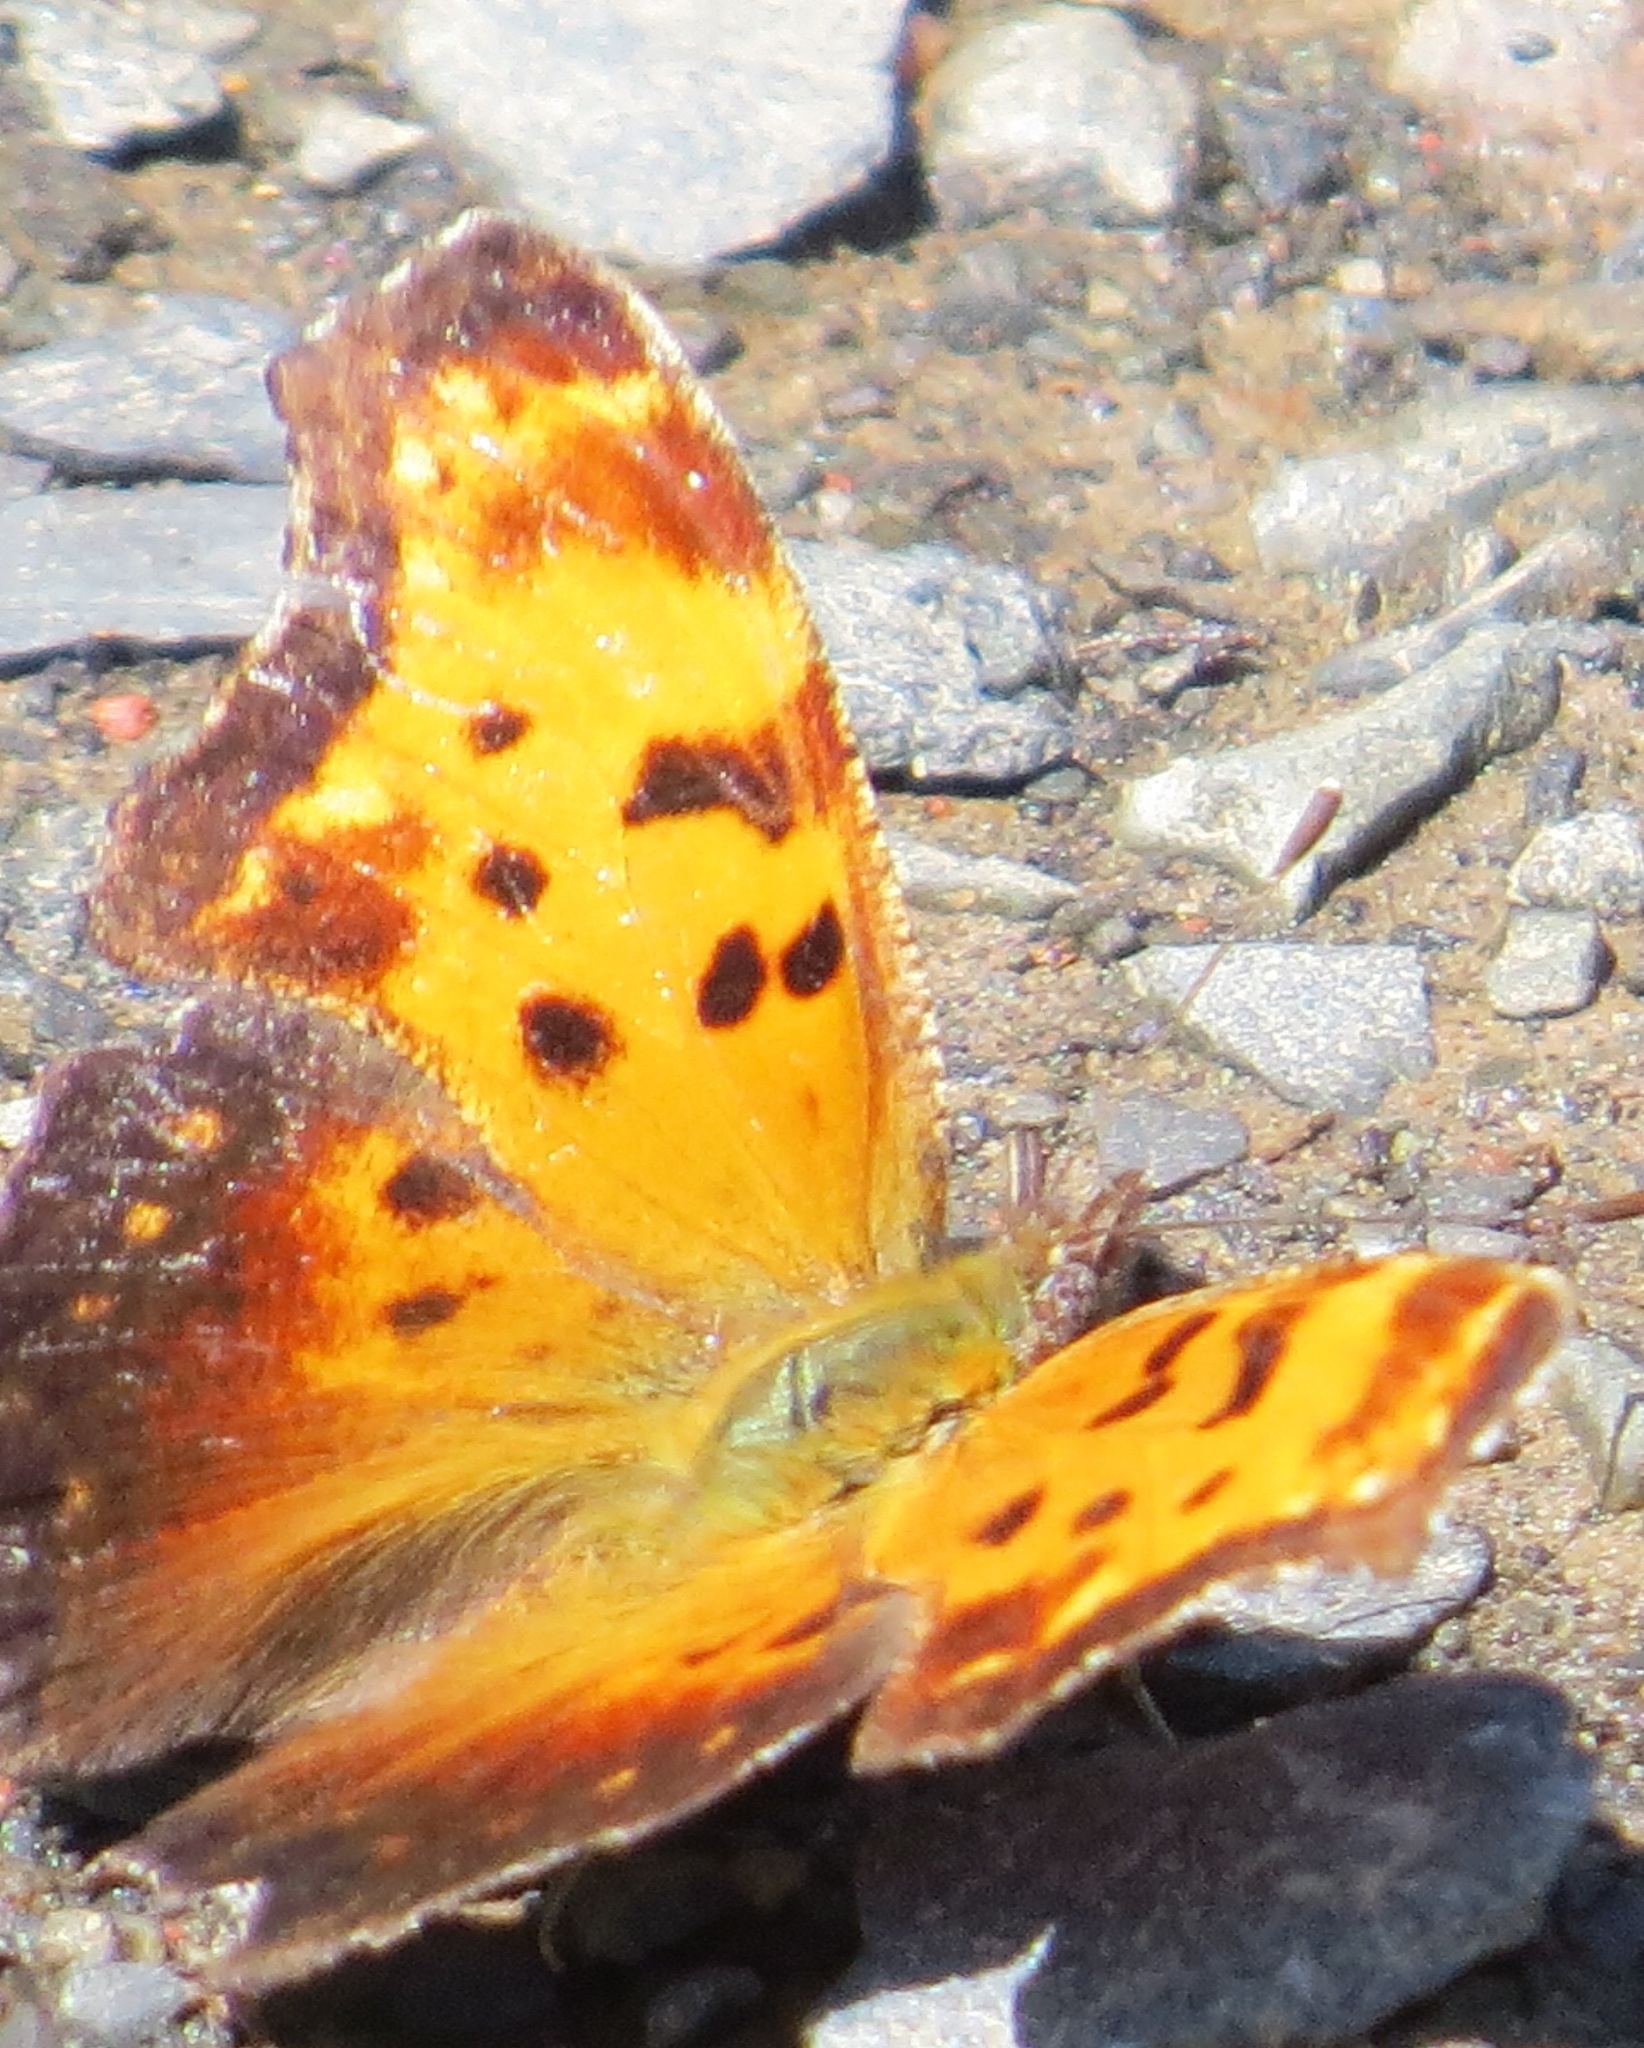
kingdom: Animalia
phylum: Arthropoda
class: Insecta
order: Lepidoptera
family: Nymphalidae
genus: Polygonia
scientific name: Polygonia progne
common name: Gray comma
